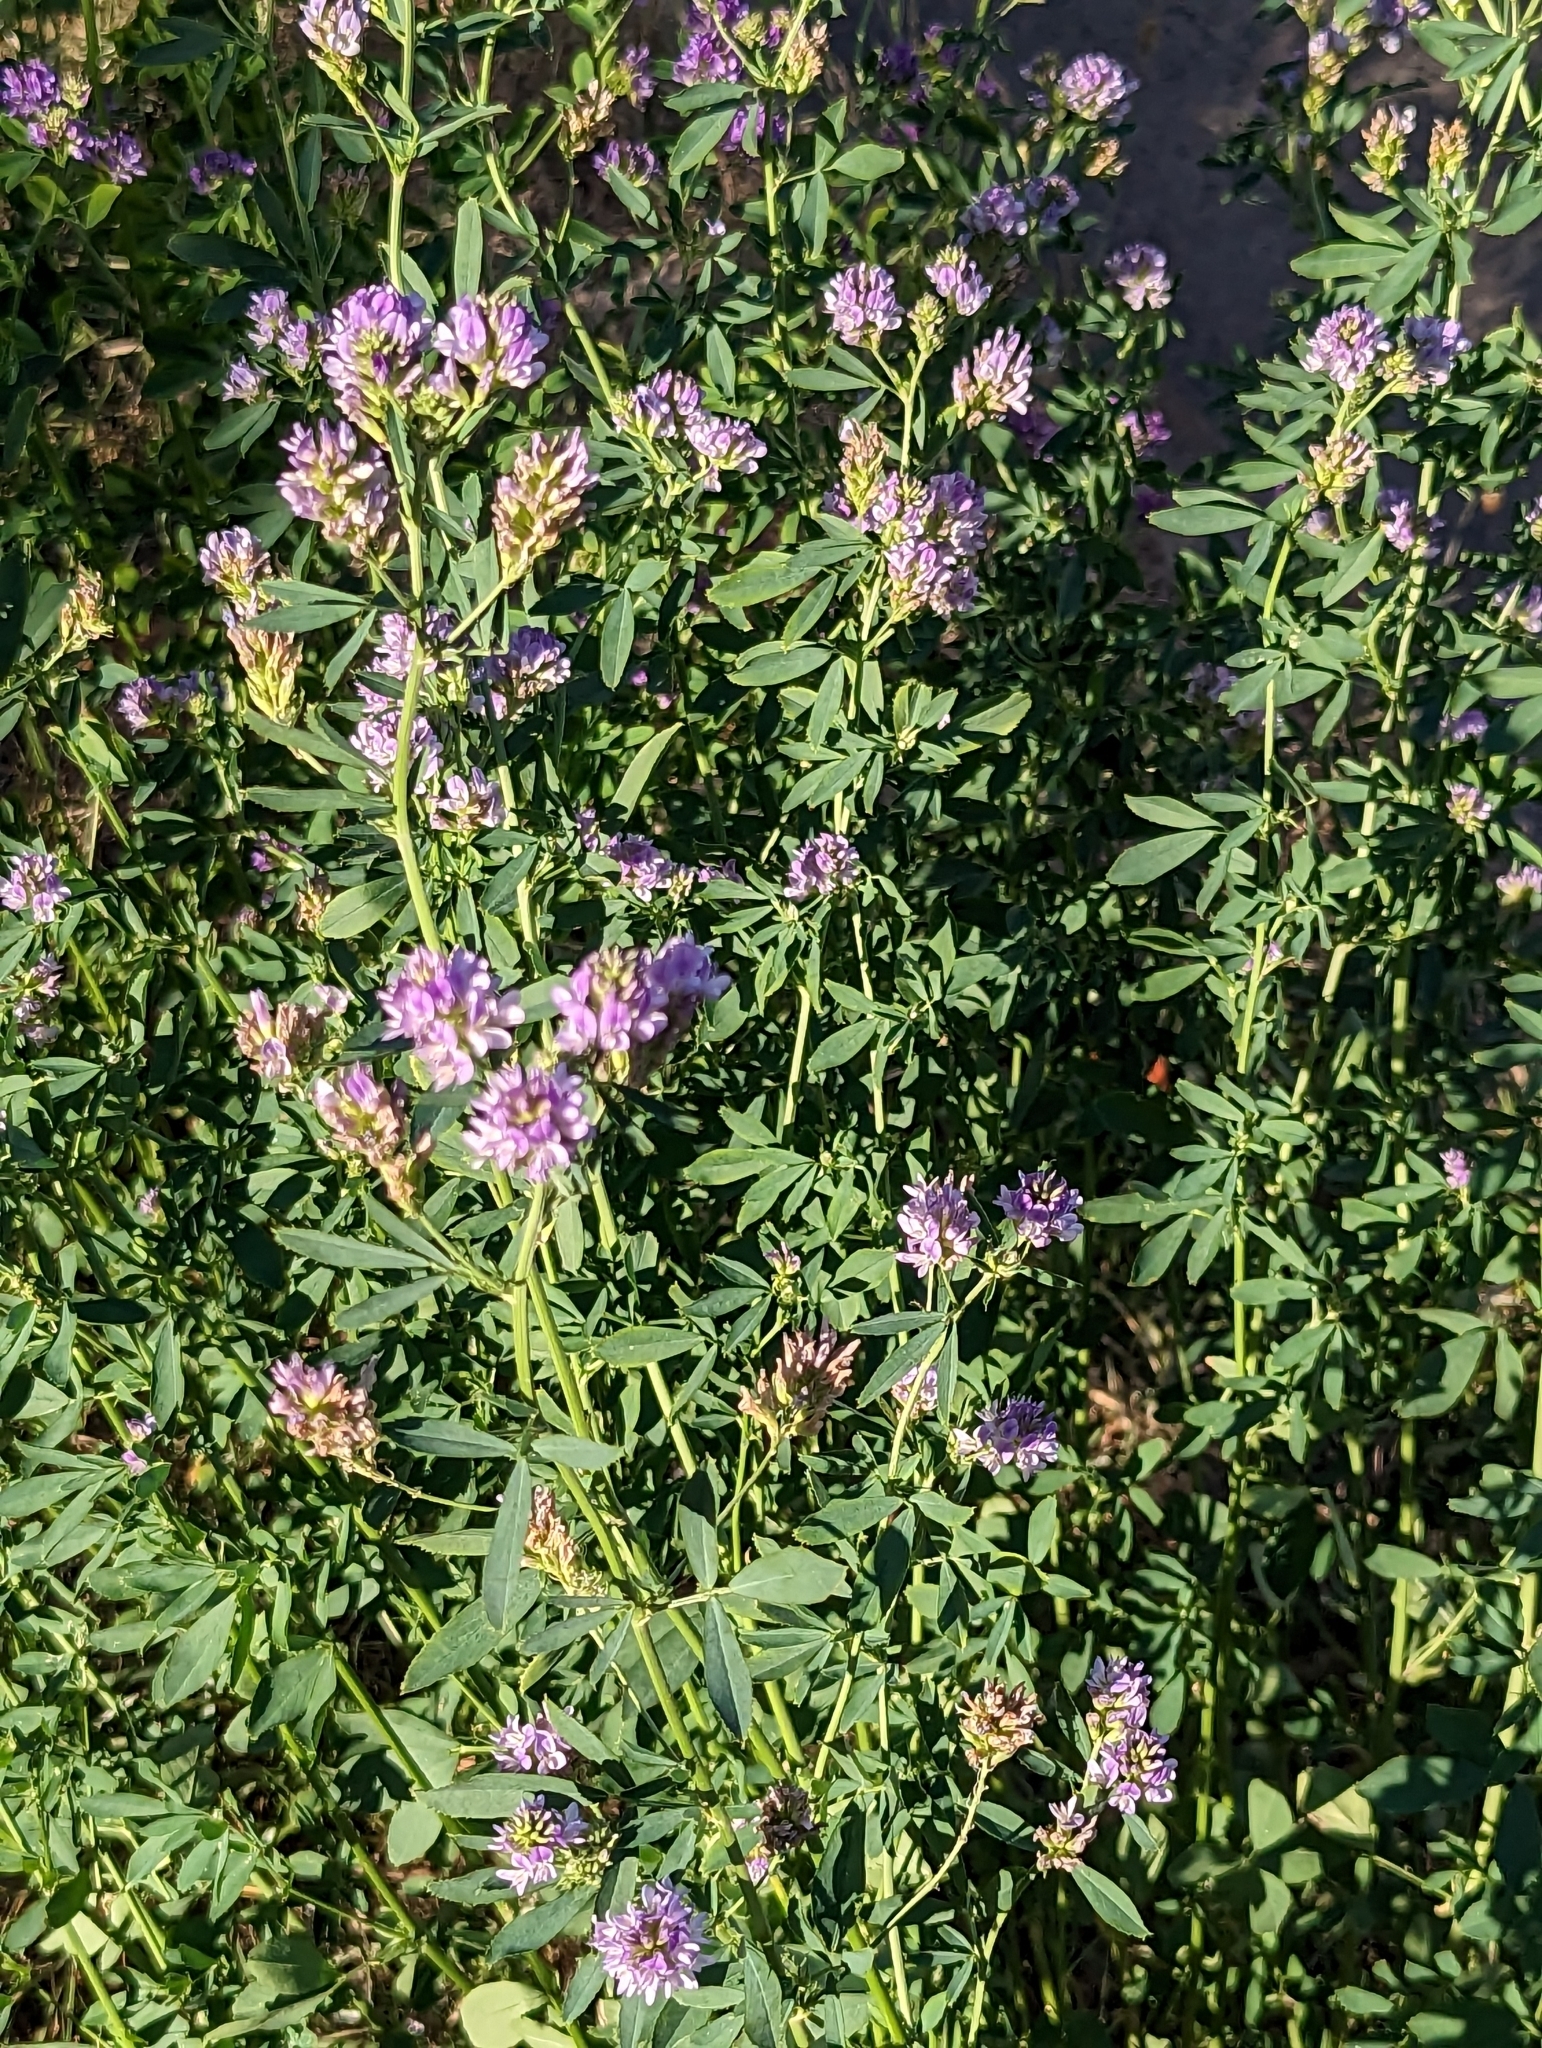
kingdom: Plantae
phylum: Tracheophyta
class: Magnoliopsida
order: Fabales
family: Fabaceae
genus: Medicago
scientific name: Medicago sativa
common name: Alfalfa
